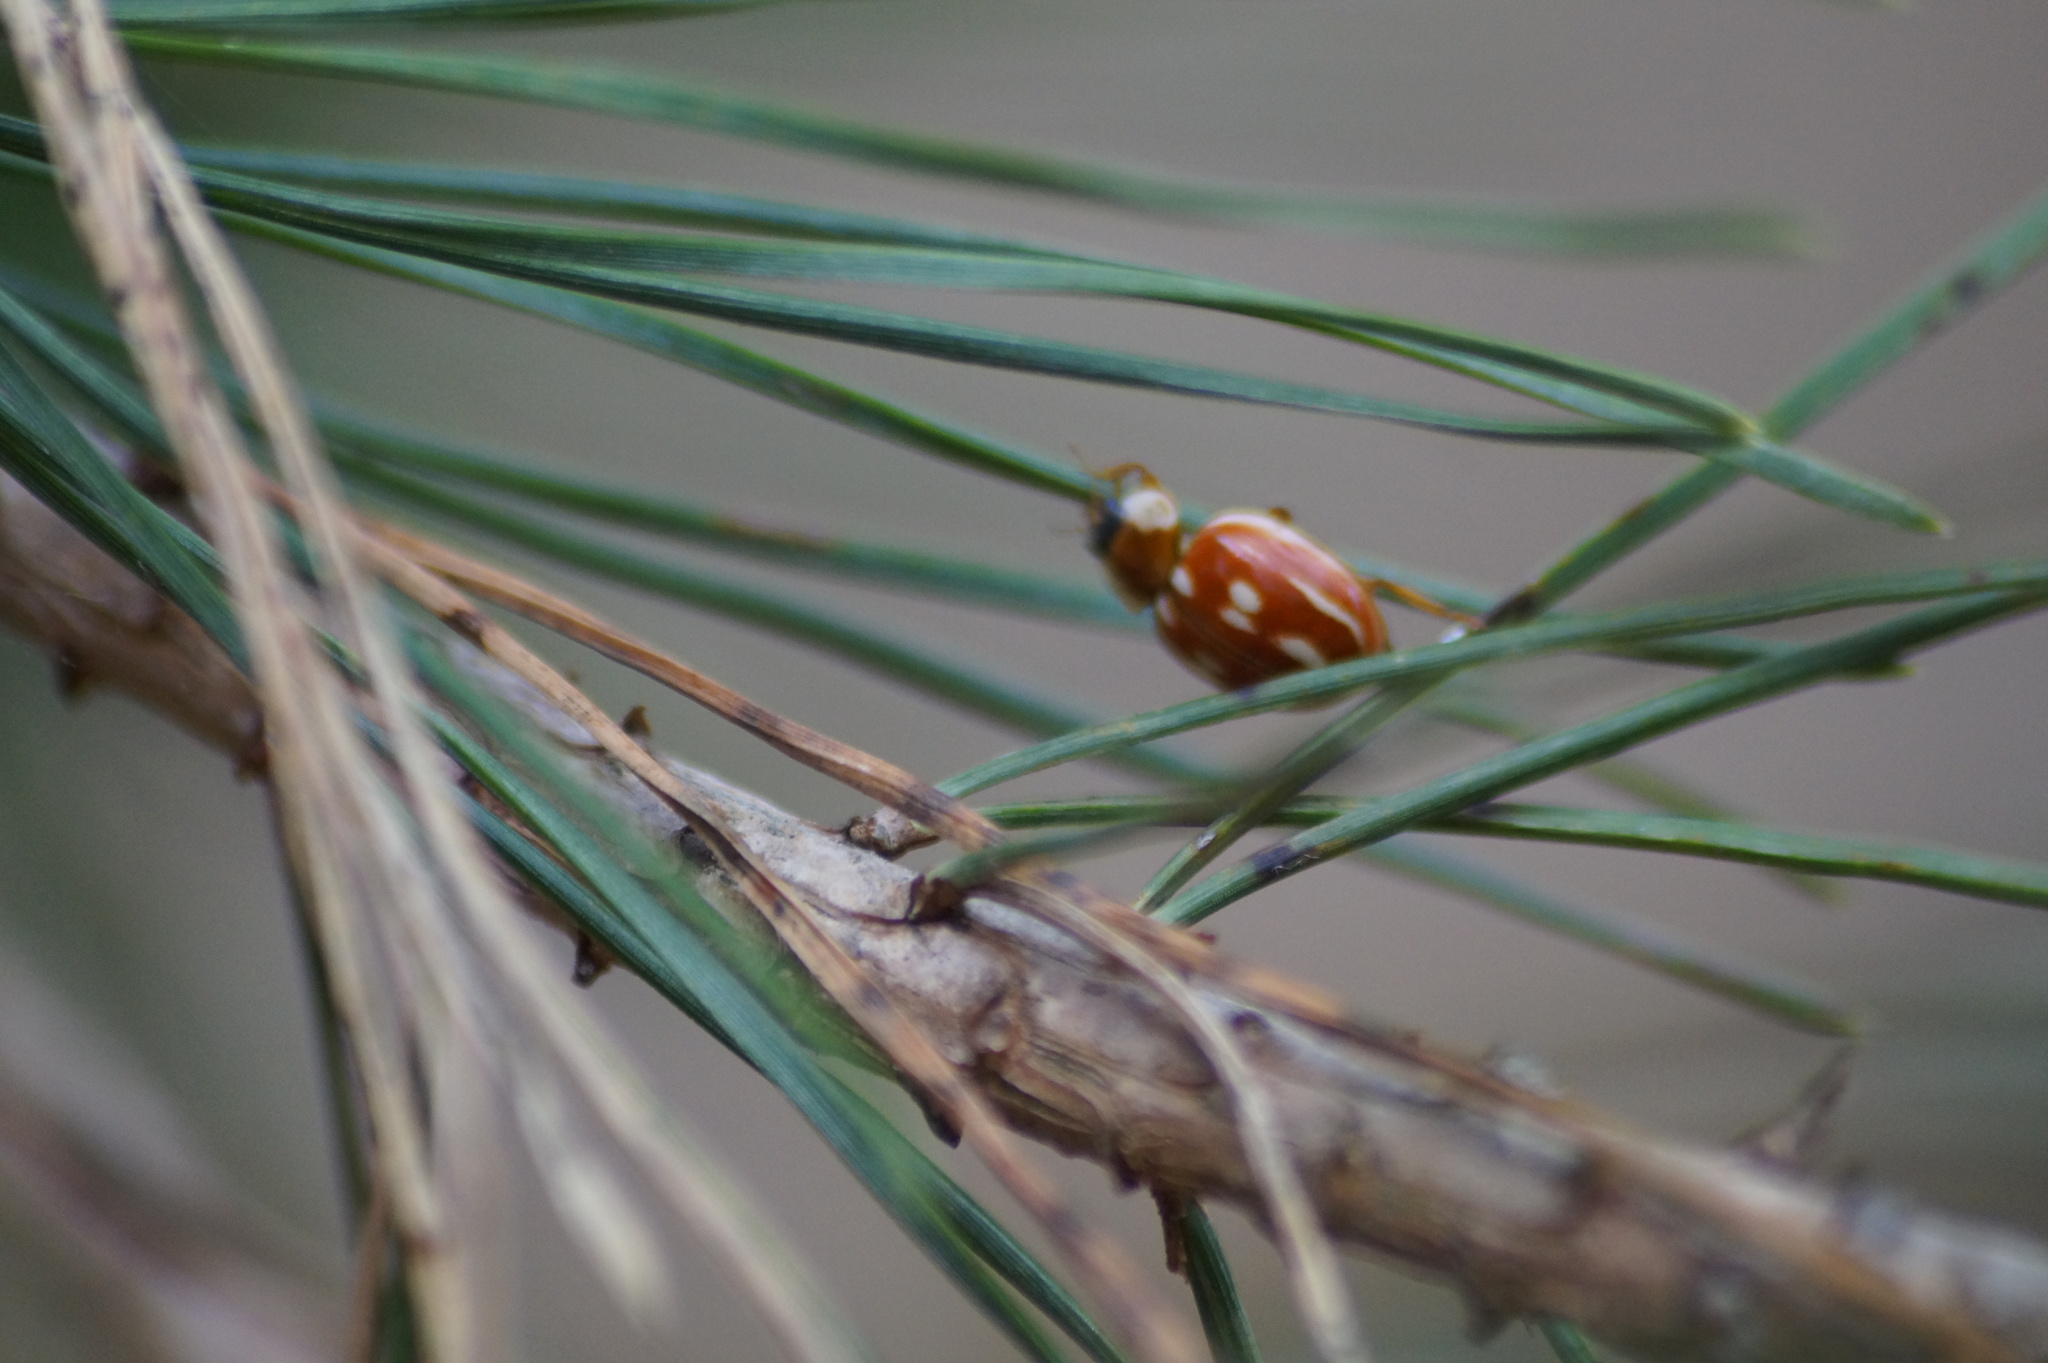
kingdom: Animalia
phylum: Arthropoda
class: Insecta
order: Coleoptera
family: Coccinellidae
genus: Myzia
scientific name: Myzia oblongoguttata
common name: Striped ladybird
